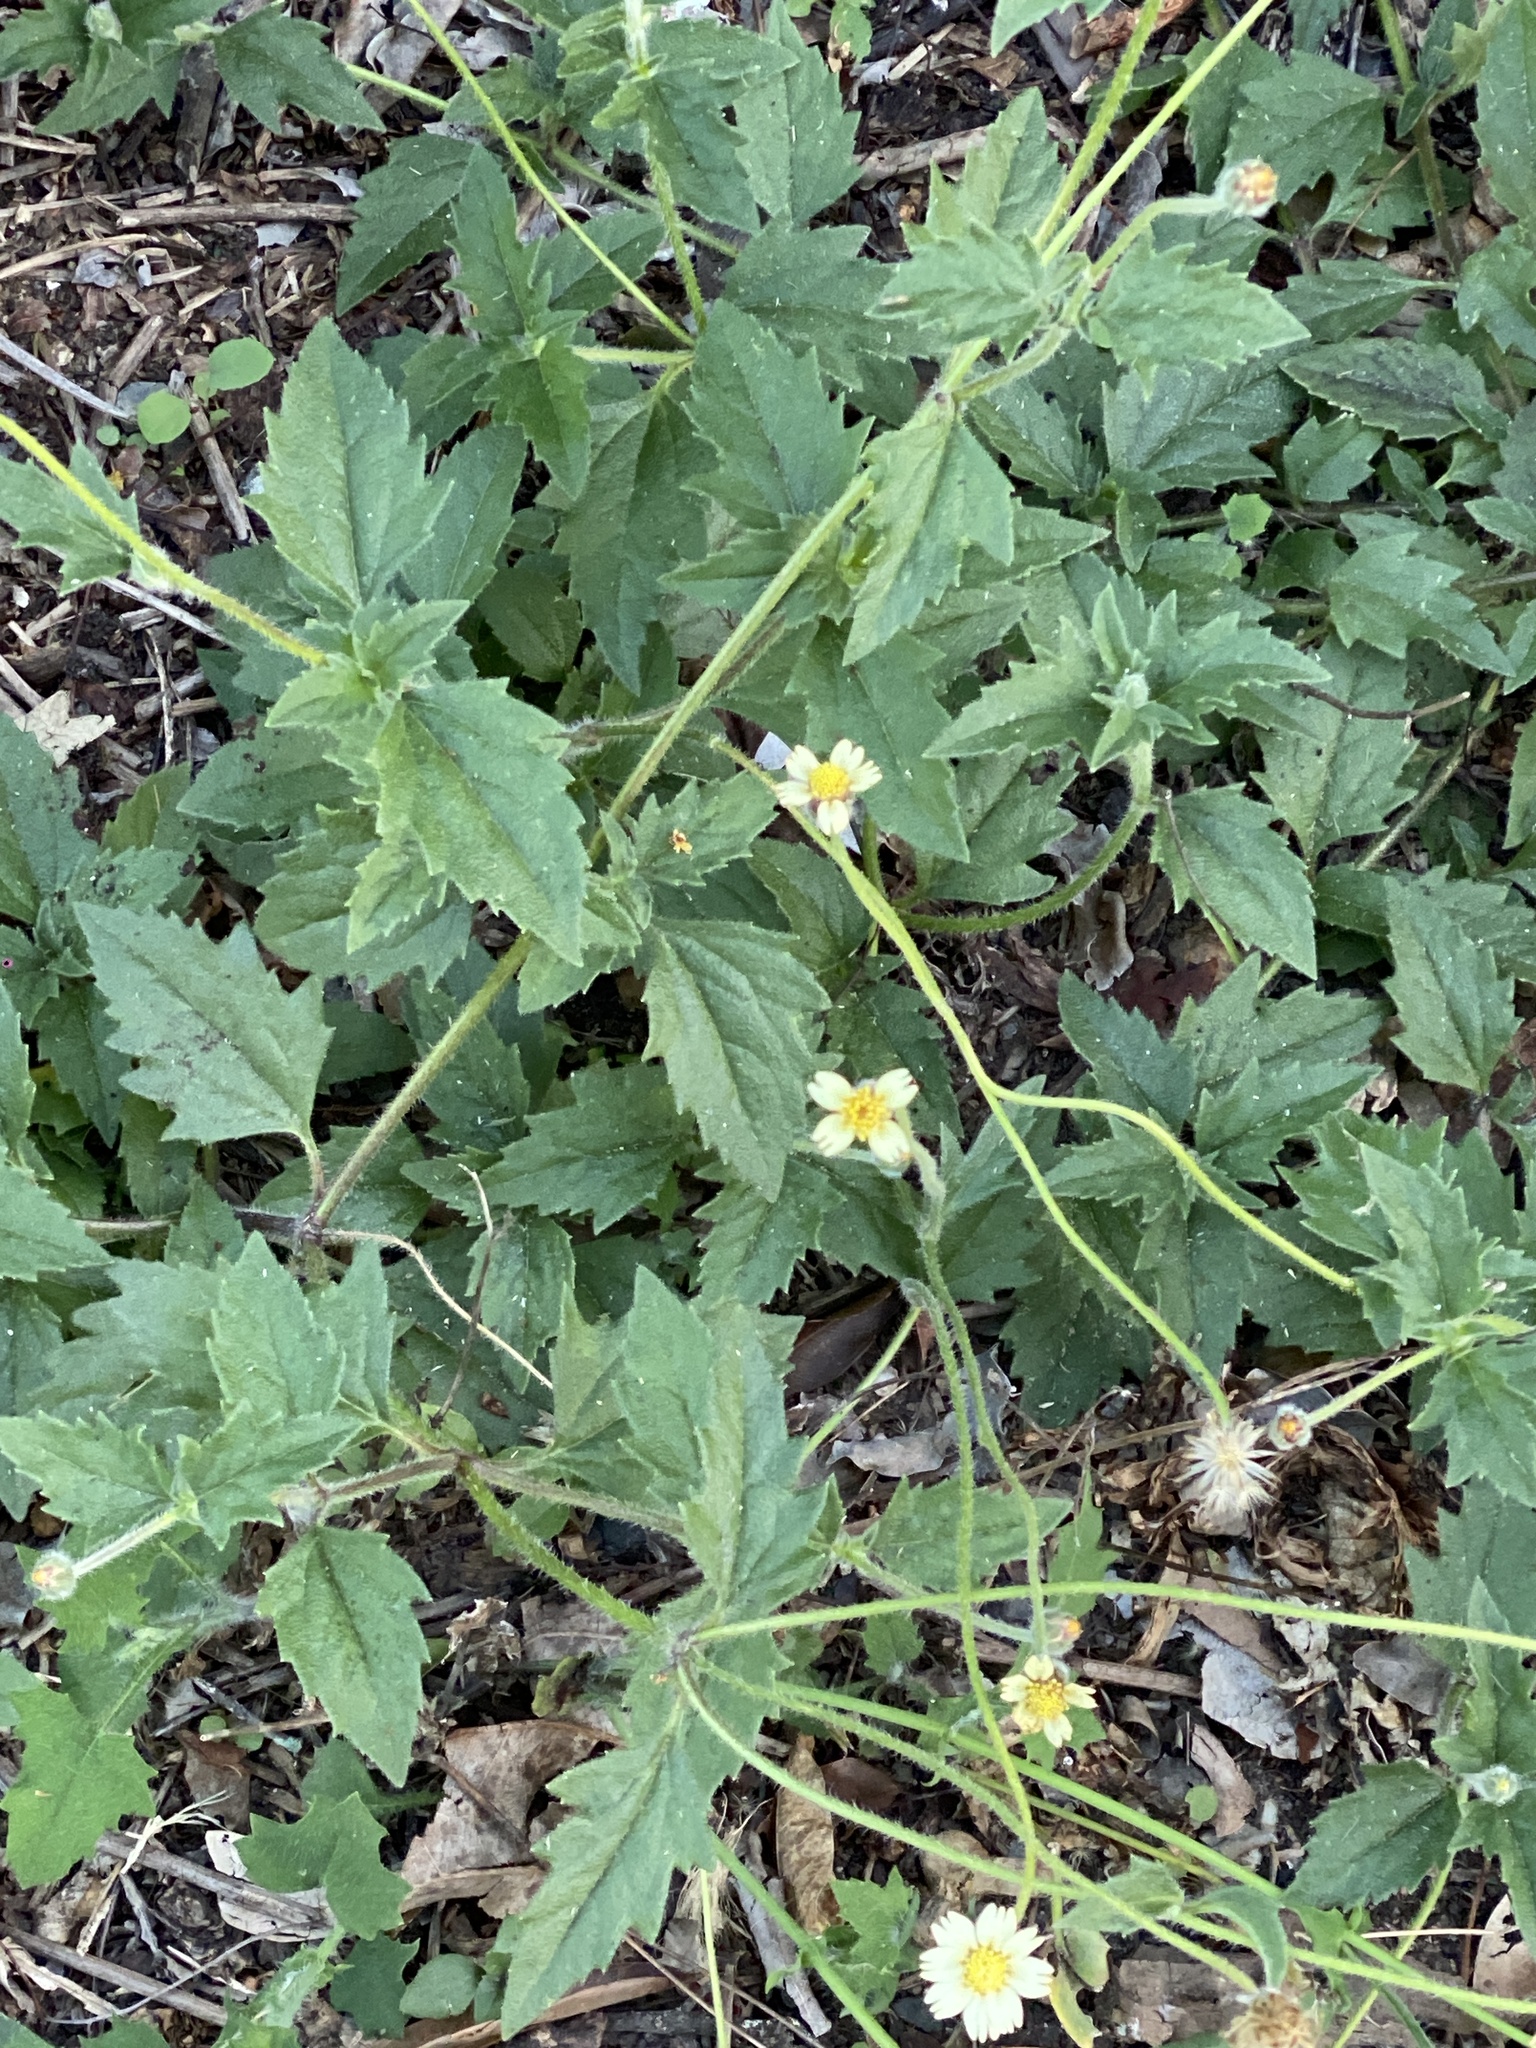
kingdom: Plantae
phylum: Tracheophyta
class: Magnoliopsida
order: Asterales
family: Asteraceae
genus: Tridax
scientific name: Tridax procumbens
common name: Coatbuttons
